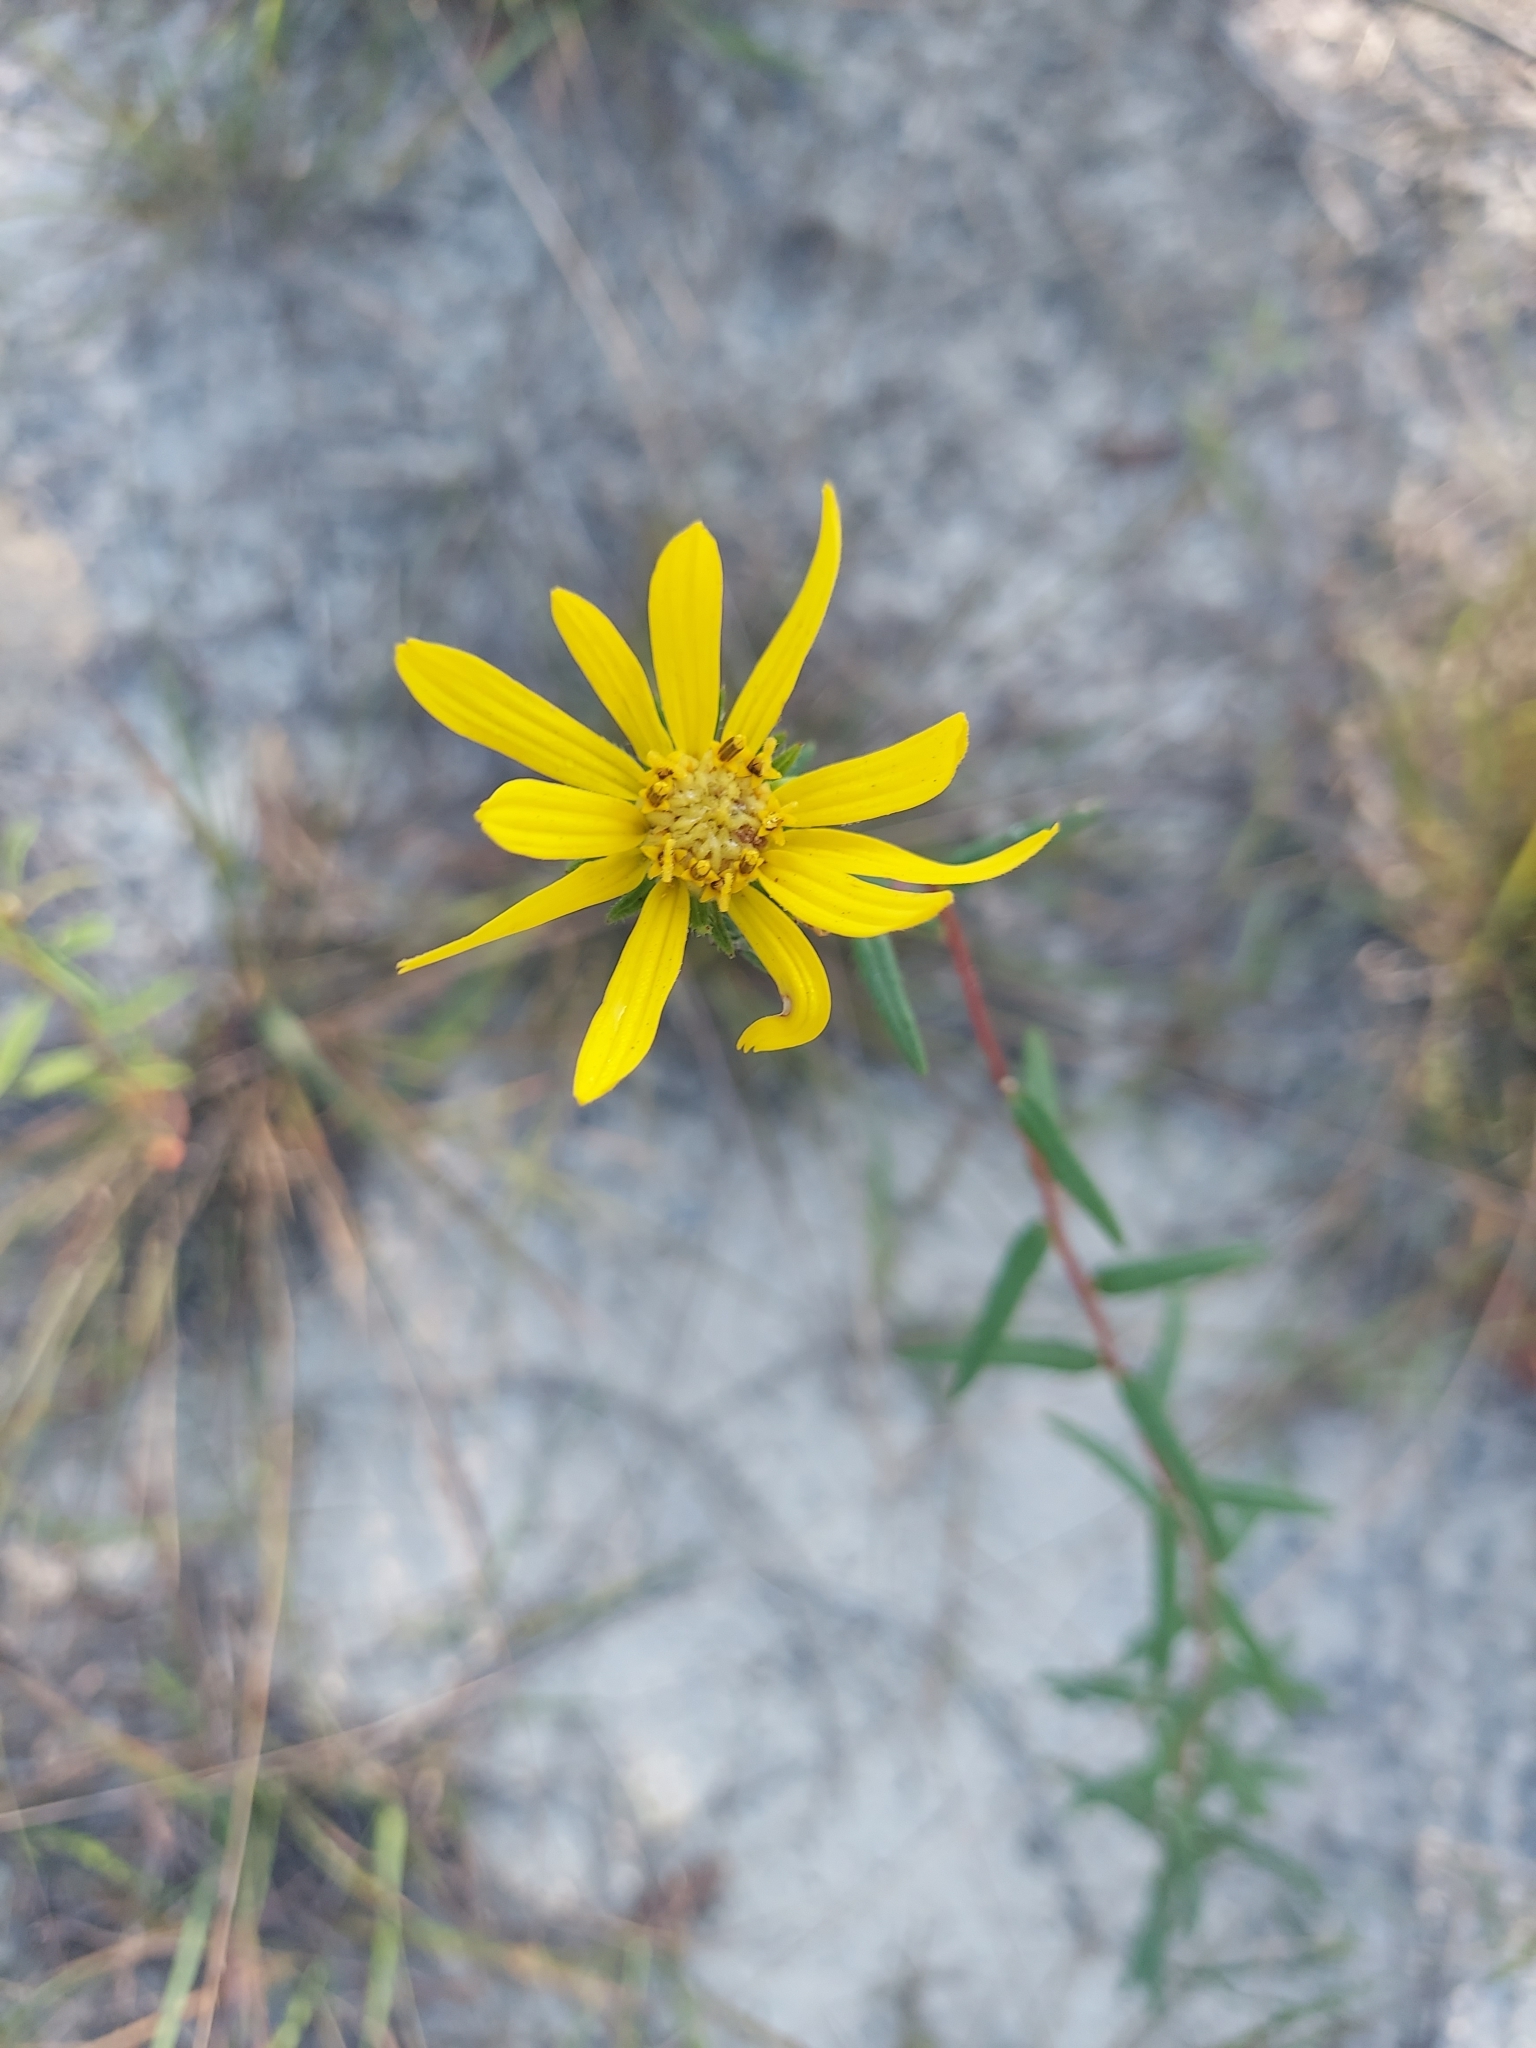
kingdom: Plantae
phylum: Tracheophyta
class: Magnoliopsida
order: Asterales
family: Asteraceae
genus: Phoebanthus
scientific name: Phoebanthus grandiflora
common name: Florida false sunflower
